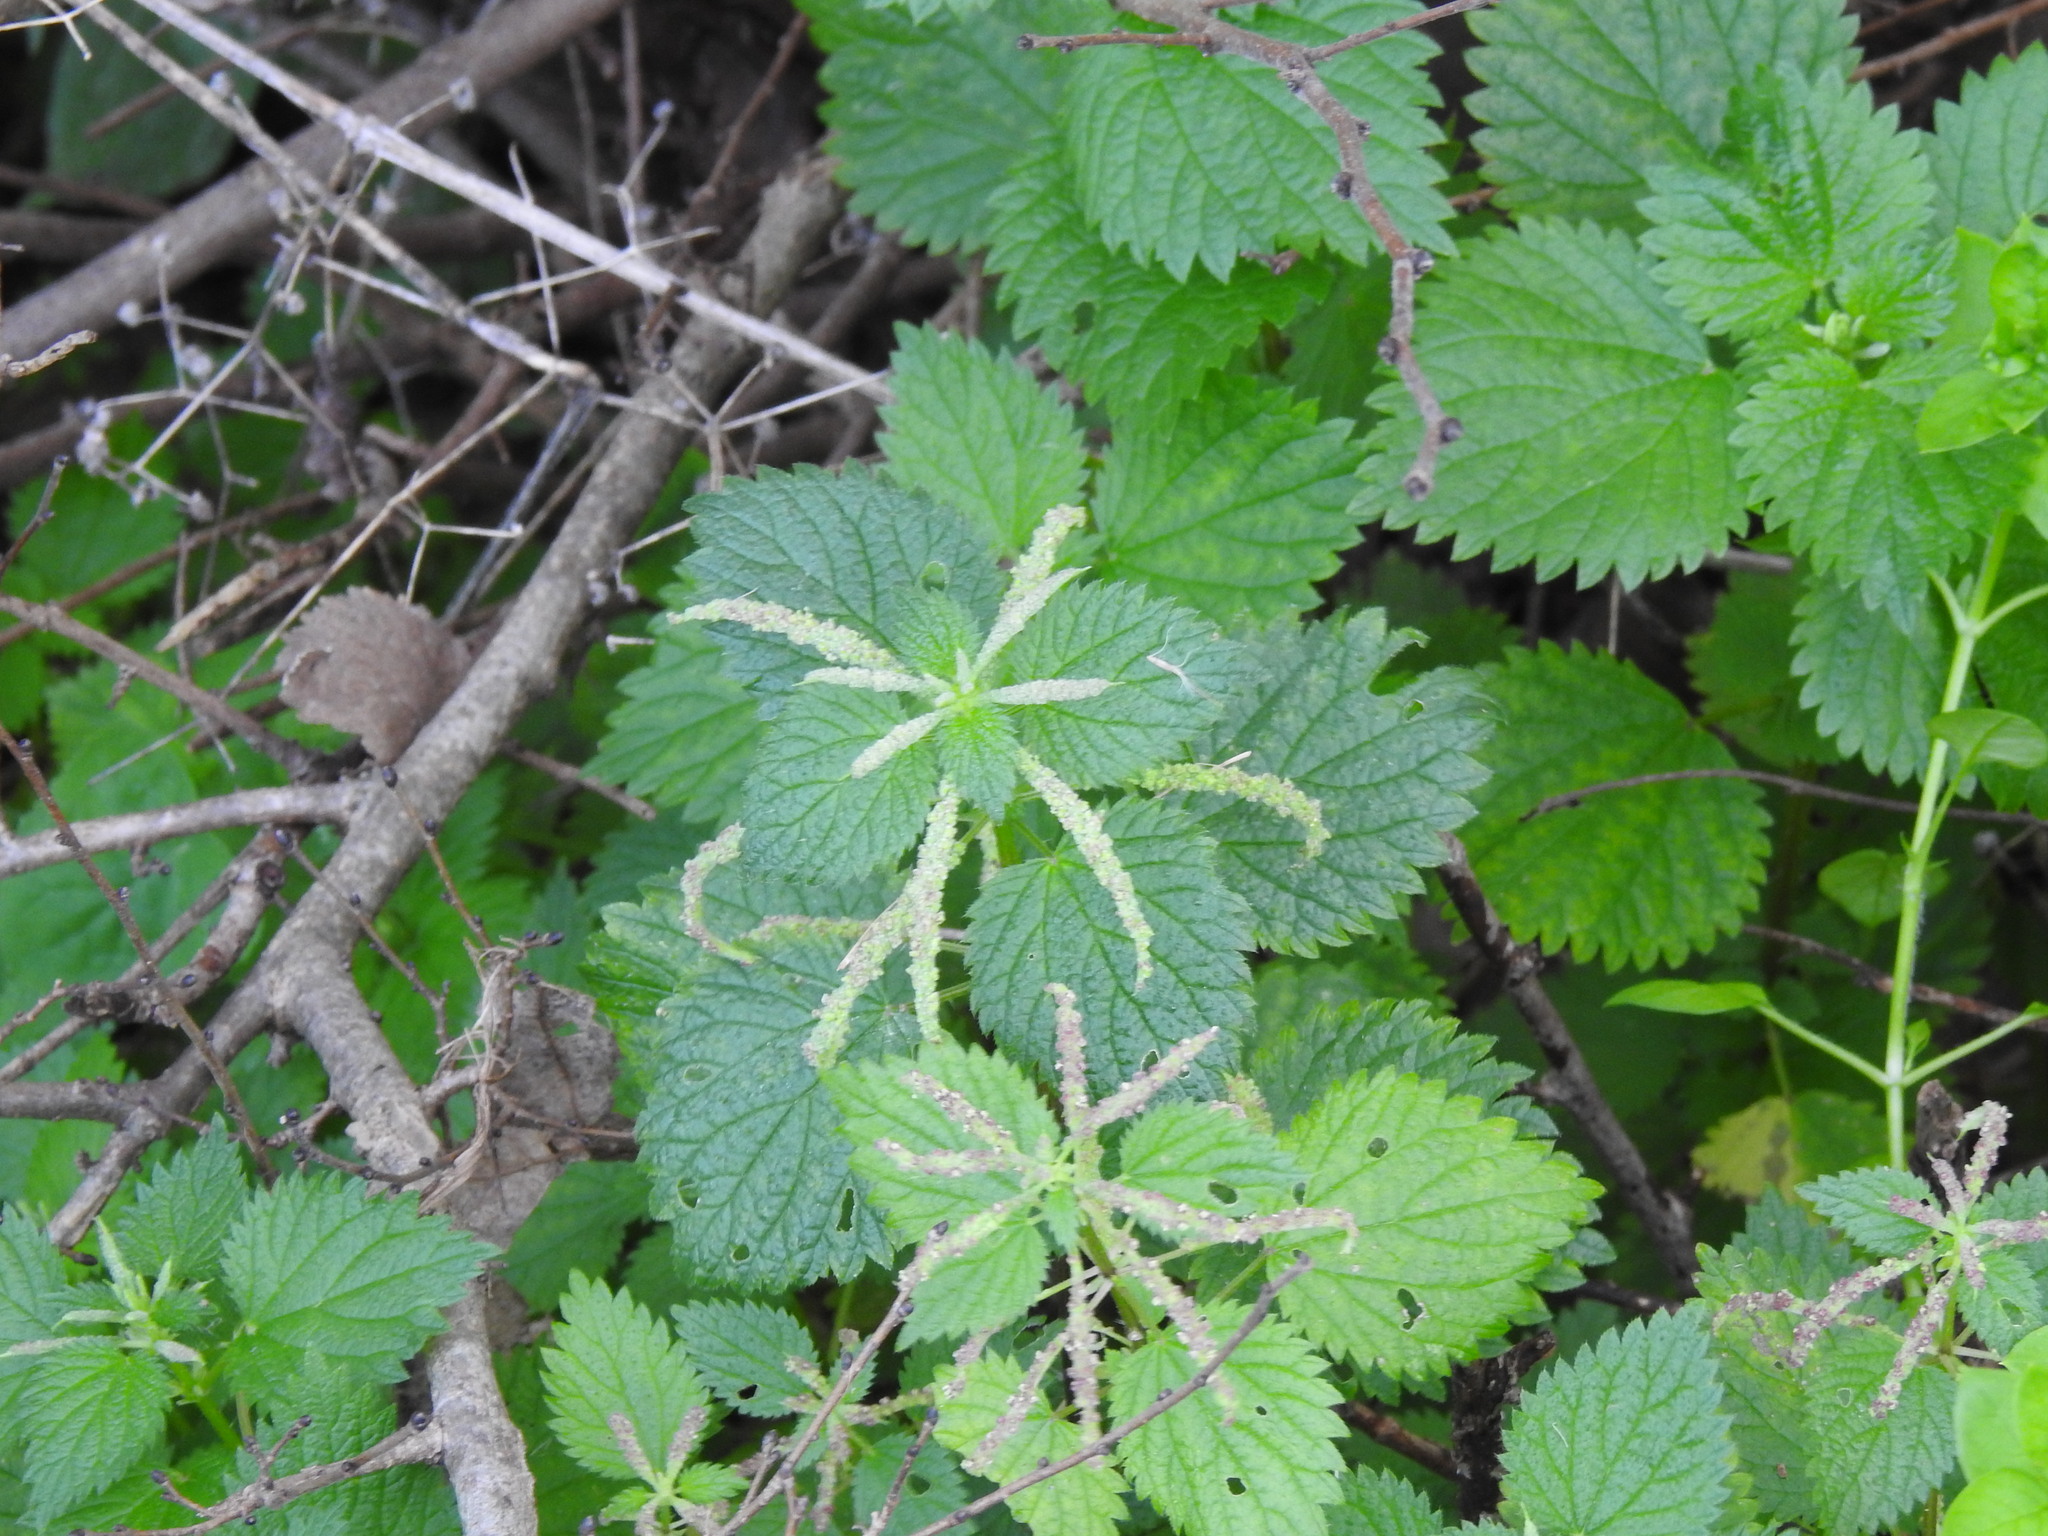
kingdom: Plantae
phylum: Tracheophyta
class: Magnoliopsida
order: Rosales
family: Urticaceae
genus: Urtica
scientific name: Urtica membranacea
